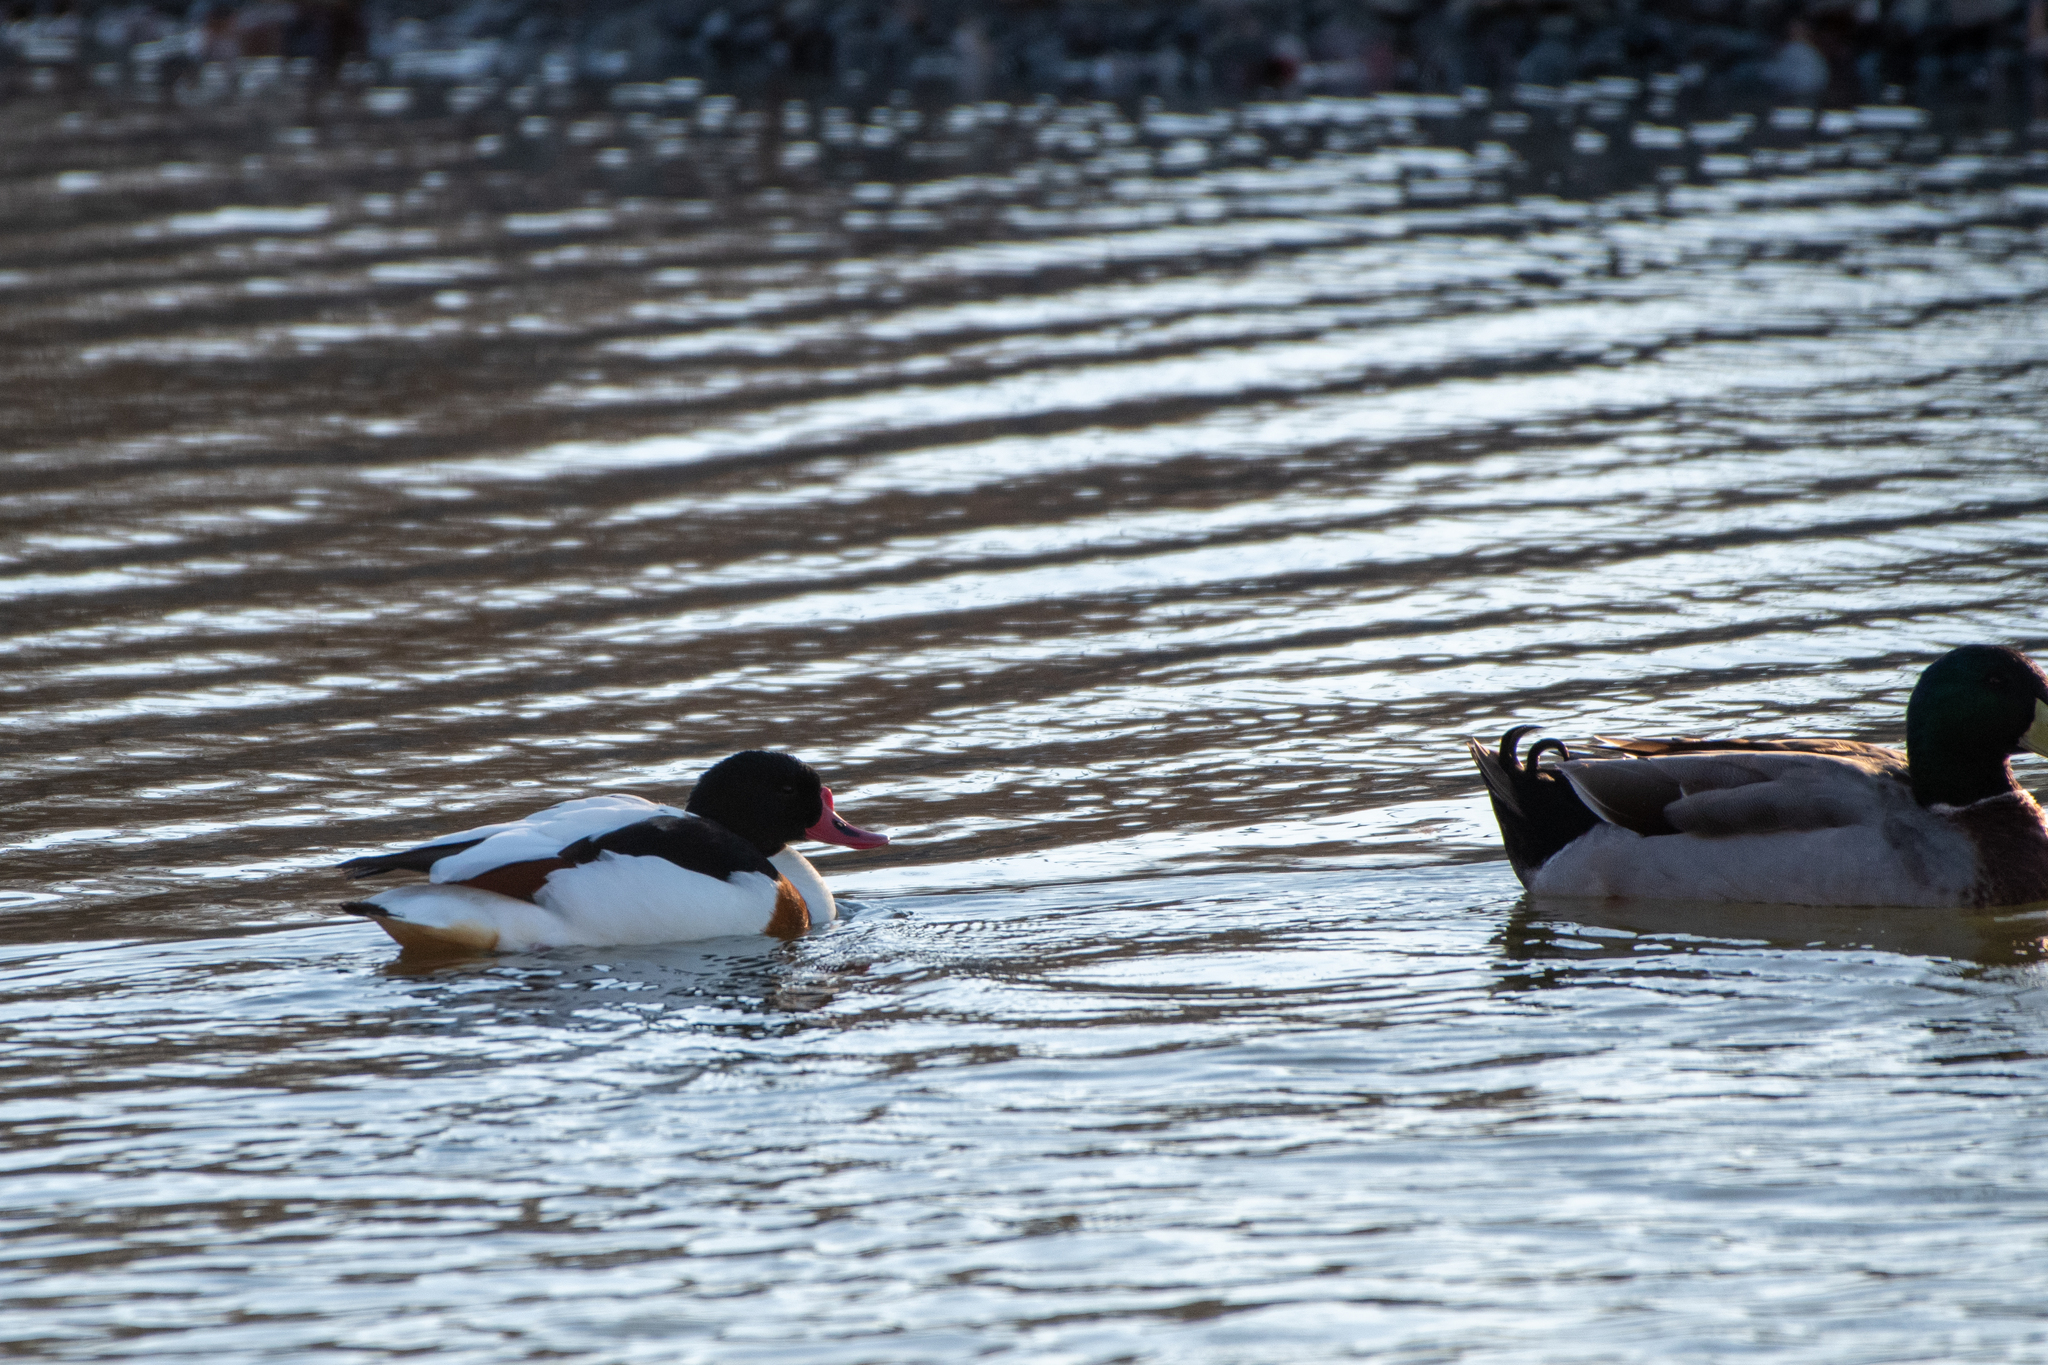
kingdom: Animalia
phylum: Chordata
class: Aves
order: Anseriformes
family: Anatidae
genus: Anas
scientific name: Anas platyrhynchos
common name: Mallard
